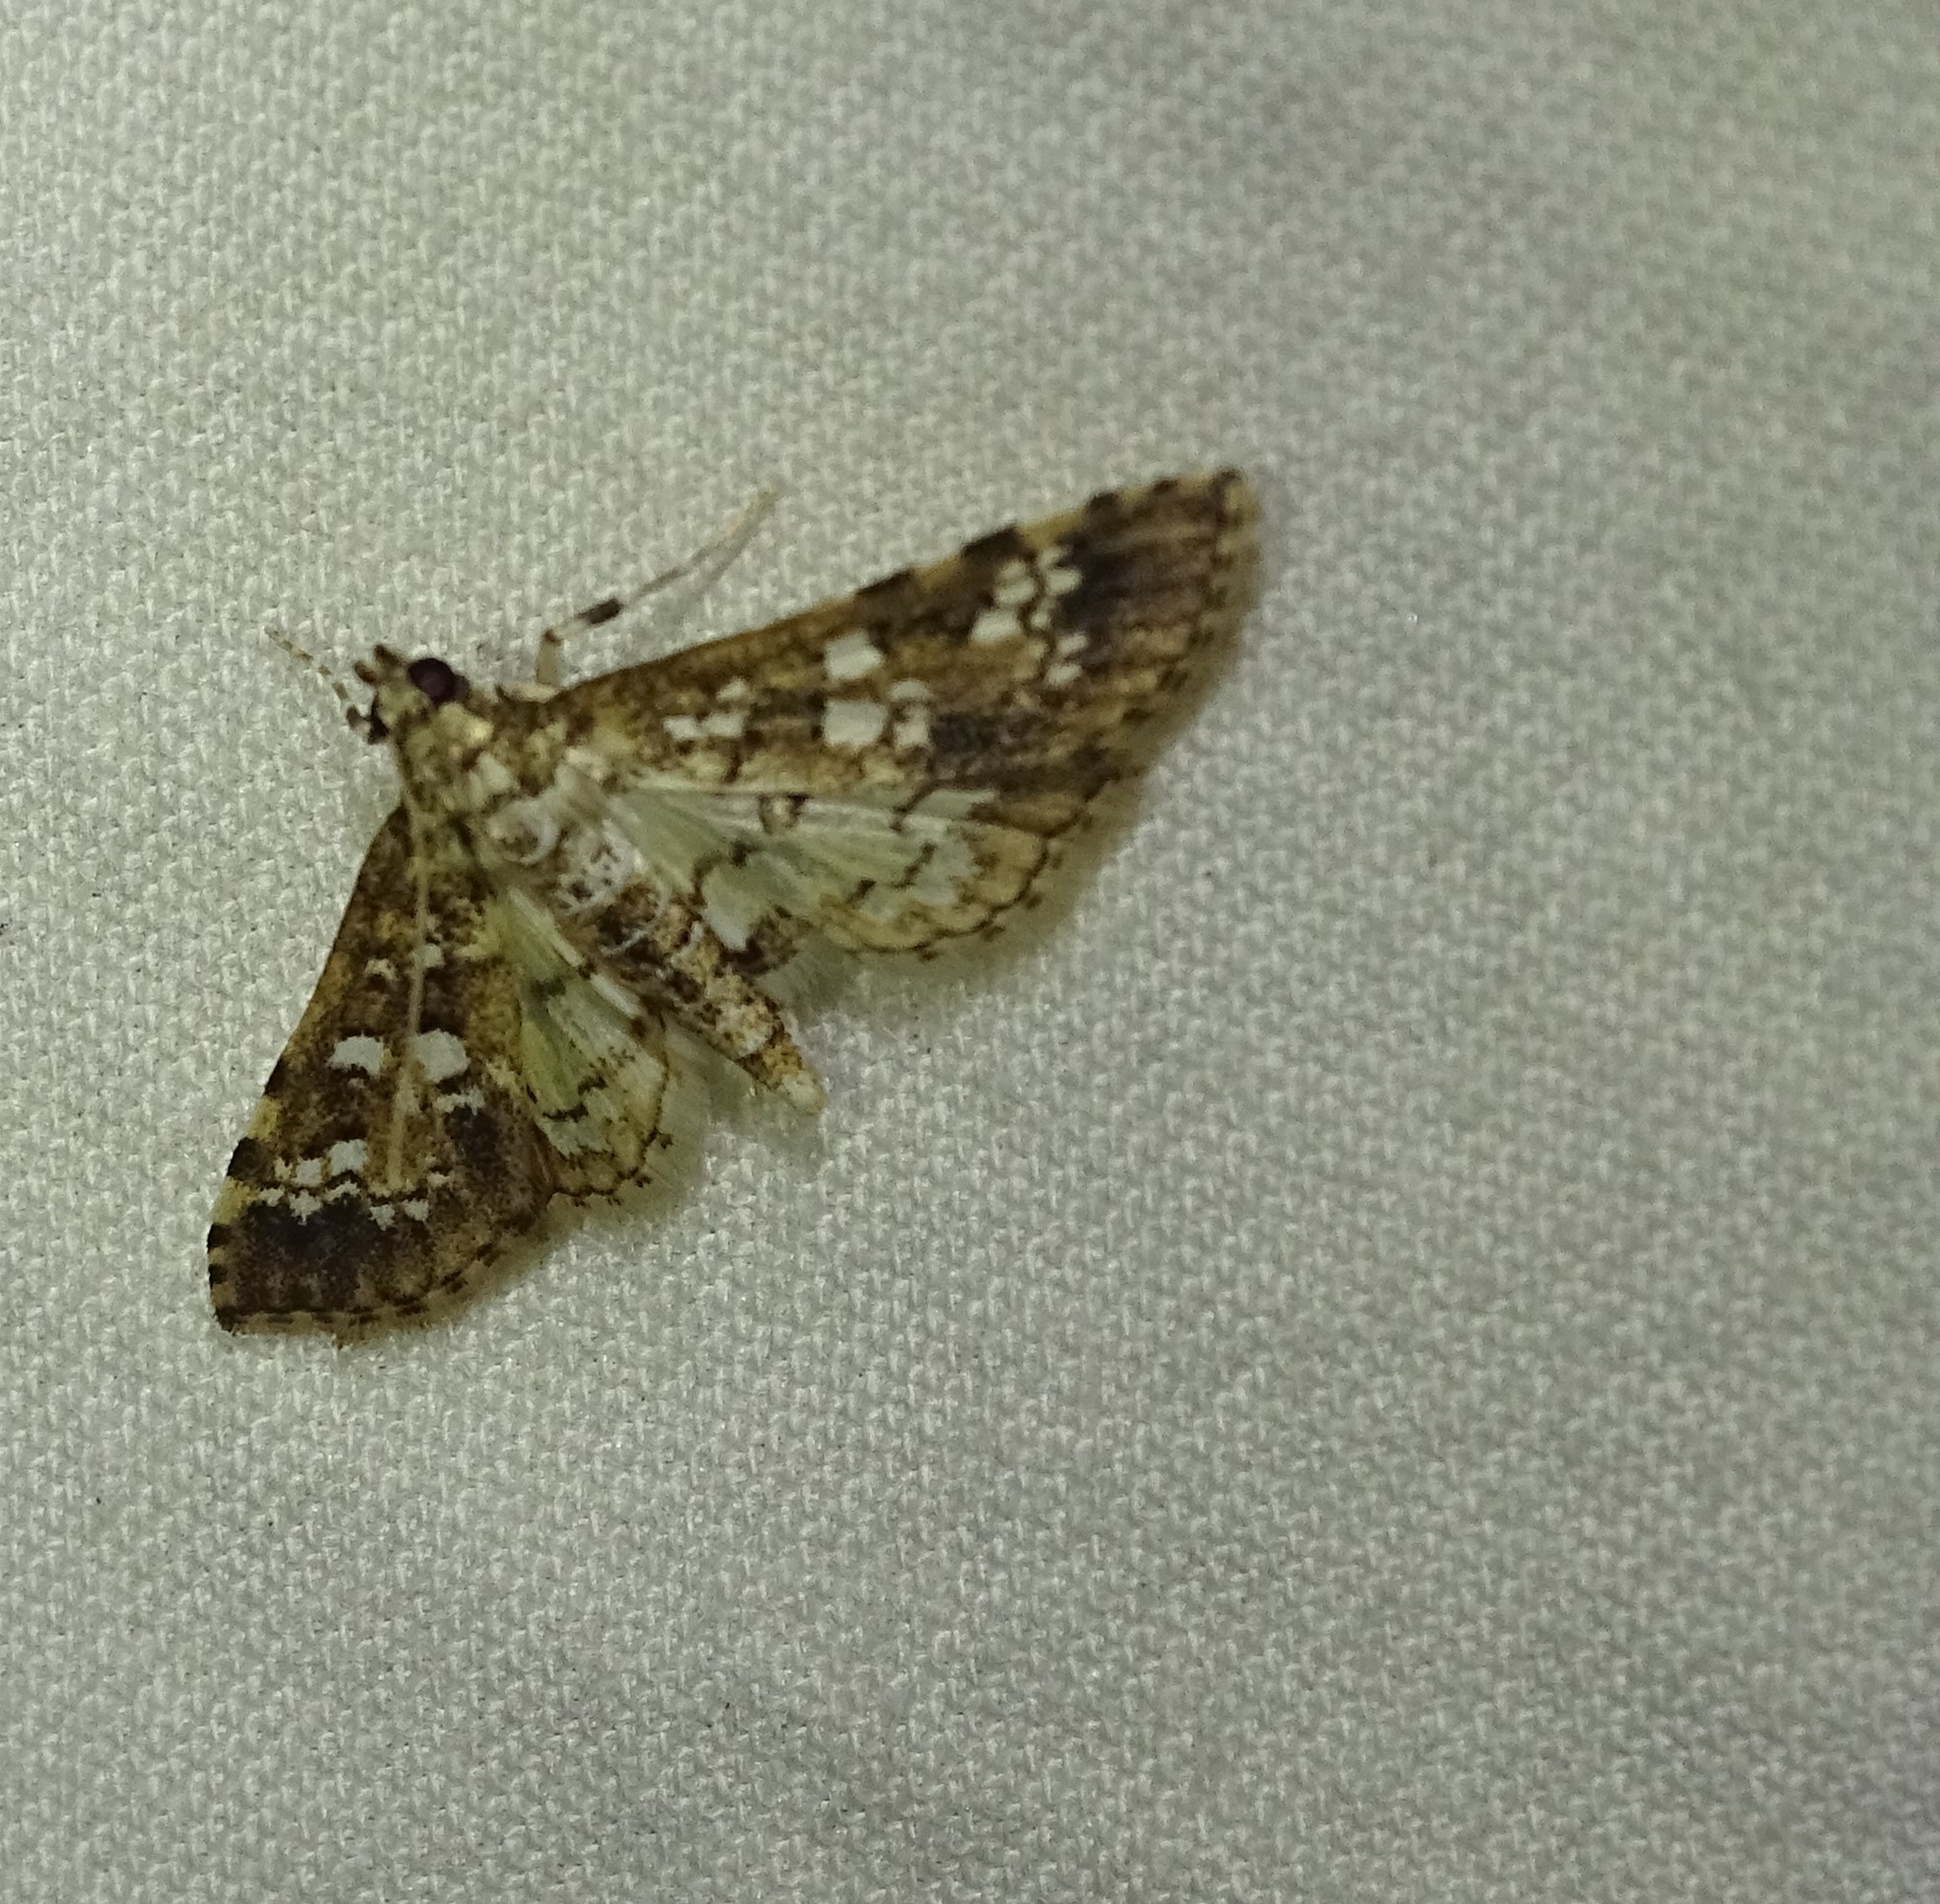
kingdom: Animalia
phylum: Arthropoda
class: Insecta
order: Lepidoptera
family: Crambidae
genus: Samea
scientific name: Samea multiplicalis
